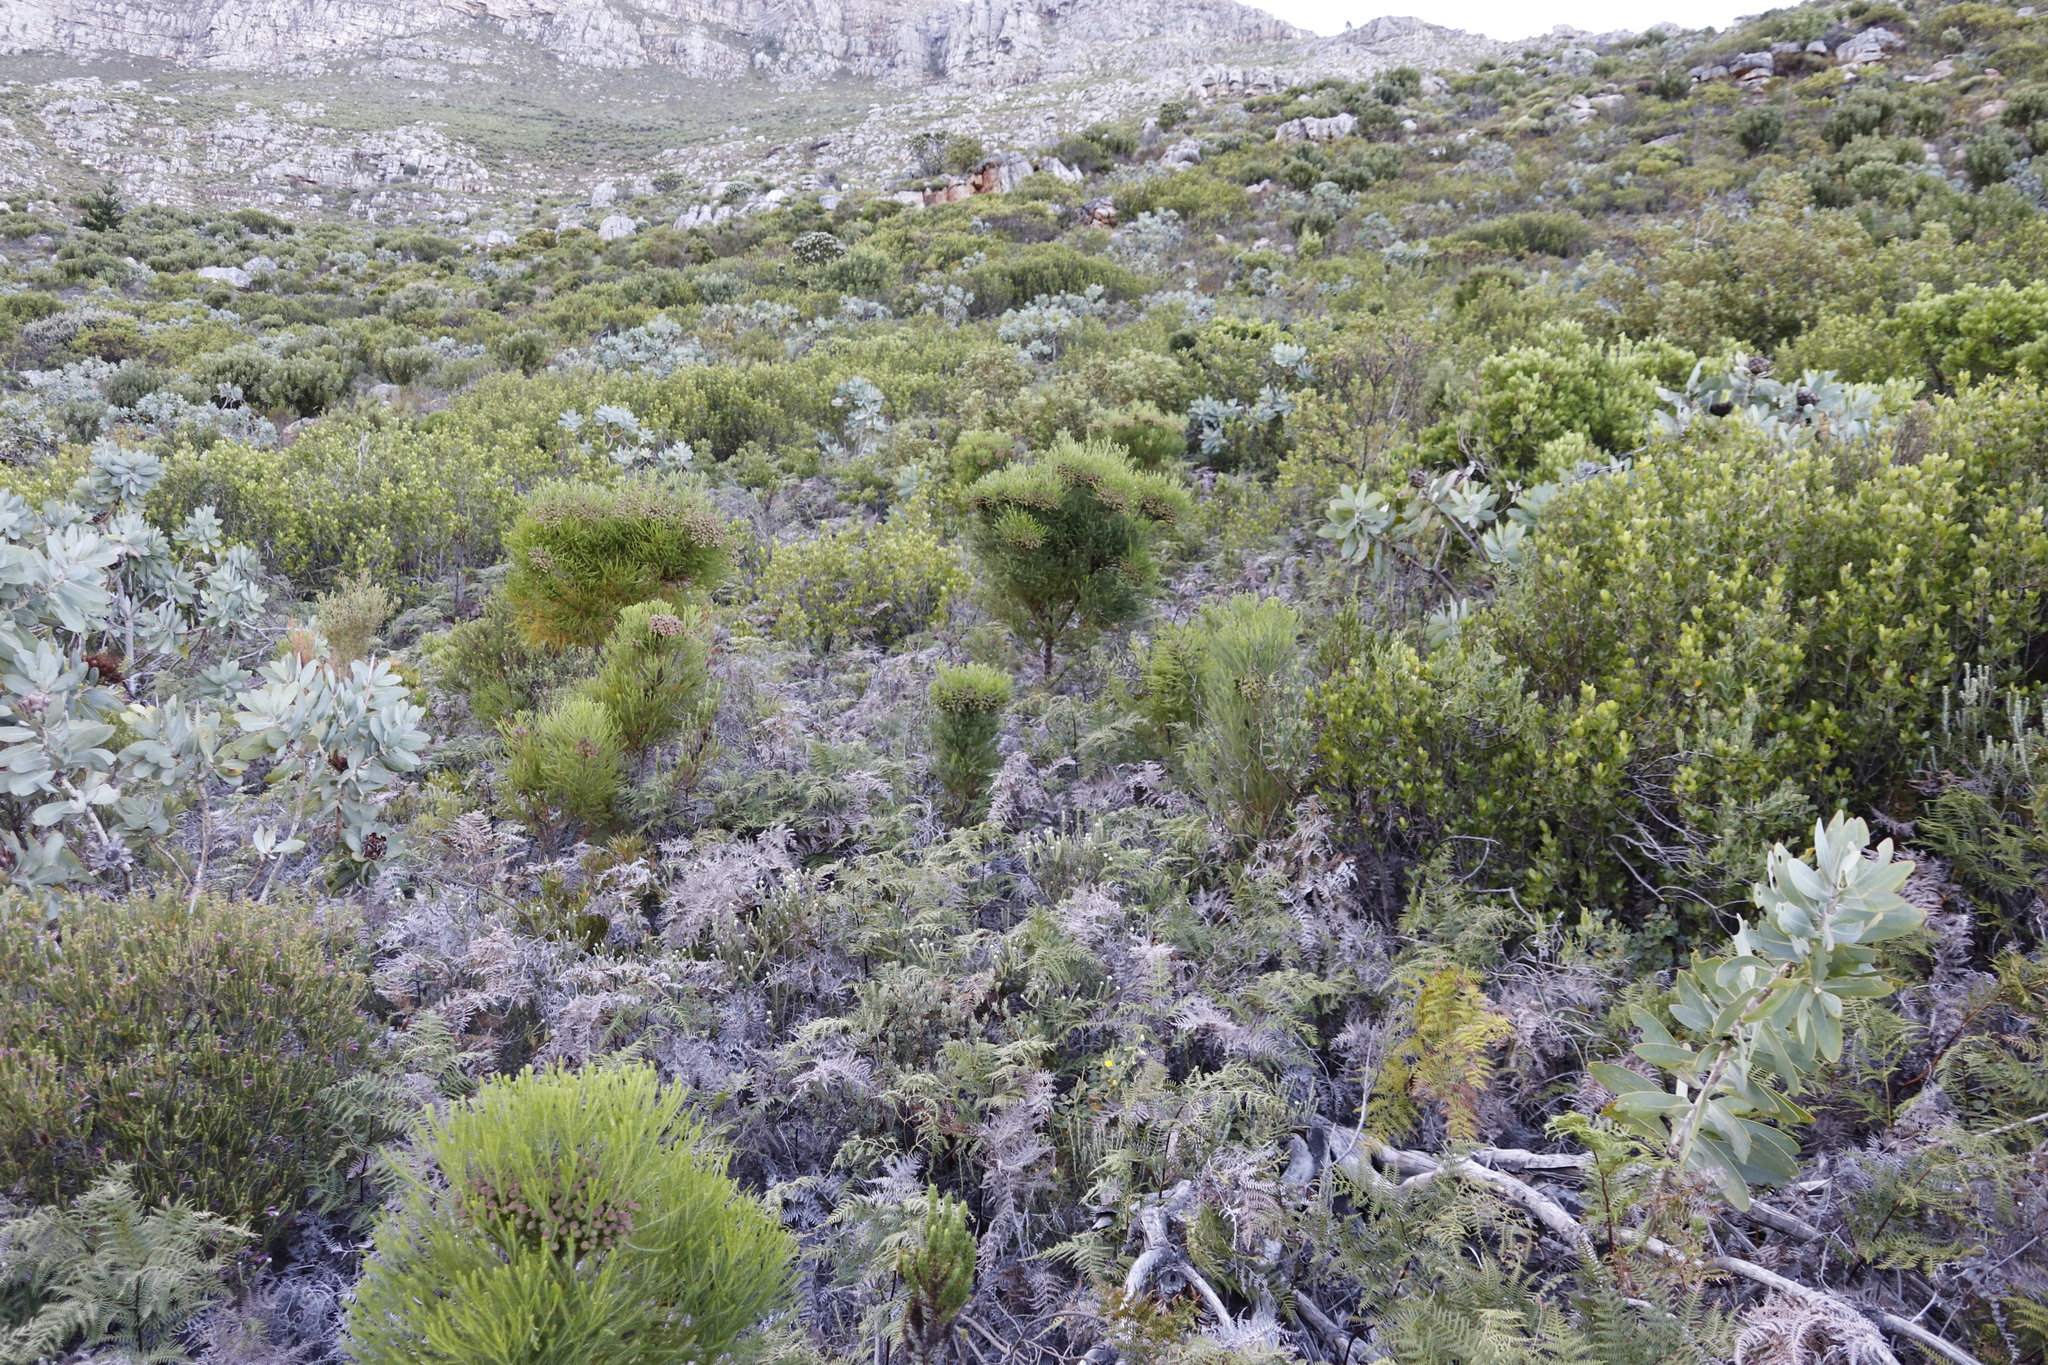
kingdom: Plantae
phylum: Tracheophyta
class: Polypodiopsida
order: Polypodiales
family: Dennstaedtiaceae
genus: Pteridium
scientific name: Pteridium aquilinum
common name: Bracken
